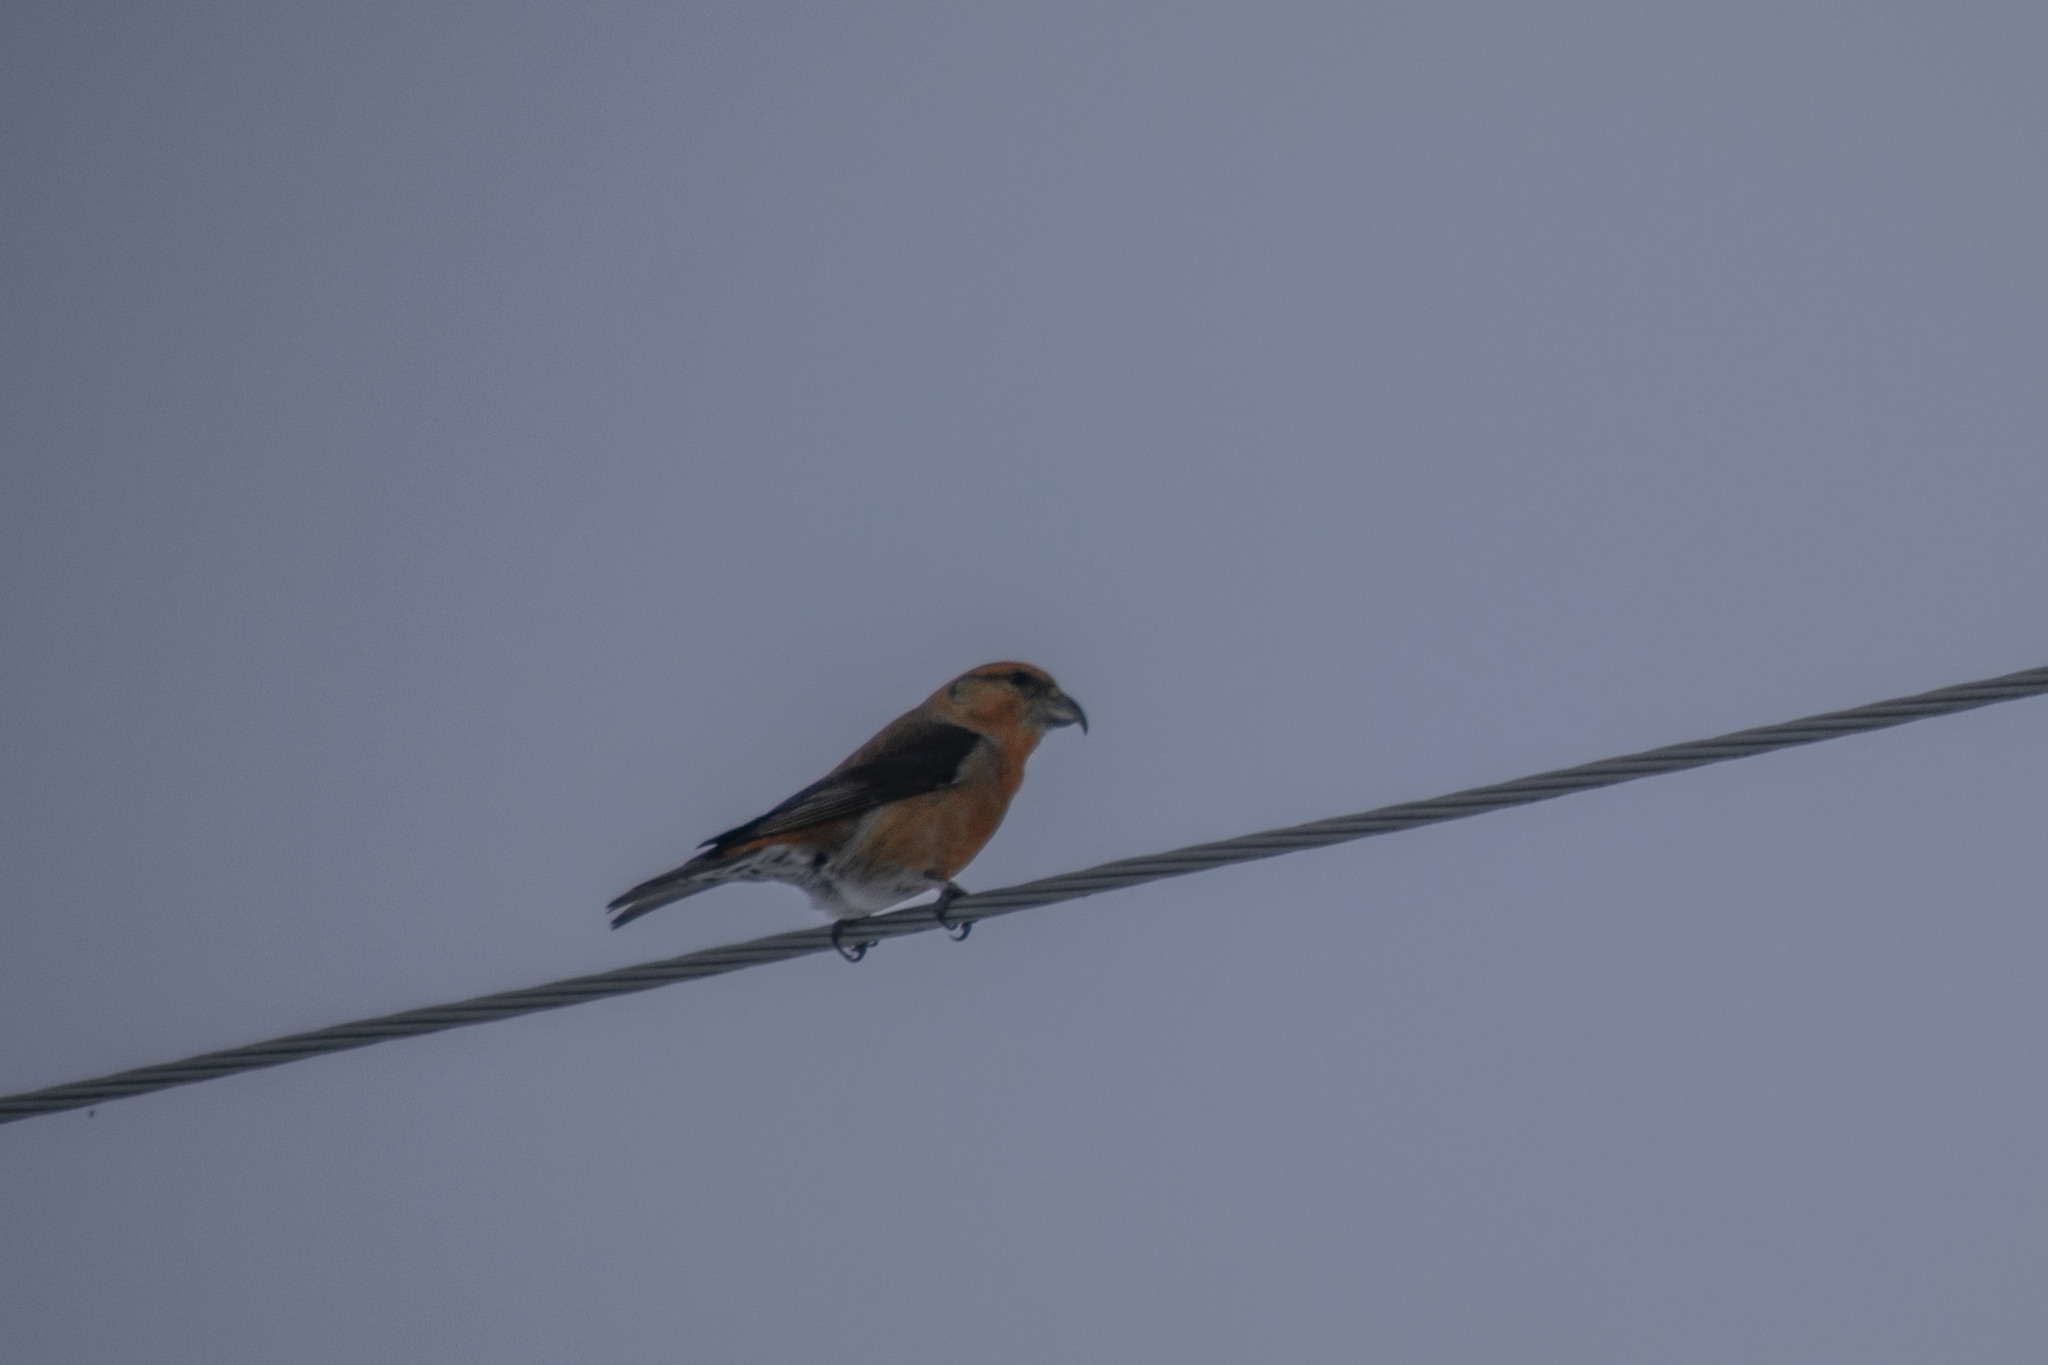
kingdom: Animalia
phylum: Chordata
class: Aves
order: Passeriformes
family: Fringillidae
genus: Loxia
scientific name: Loxia curvirostra
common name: Red crossbill
